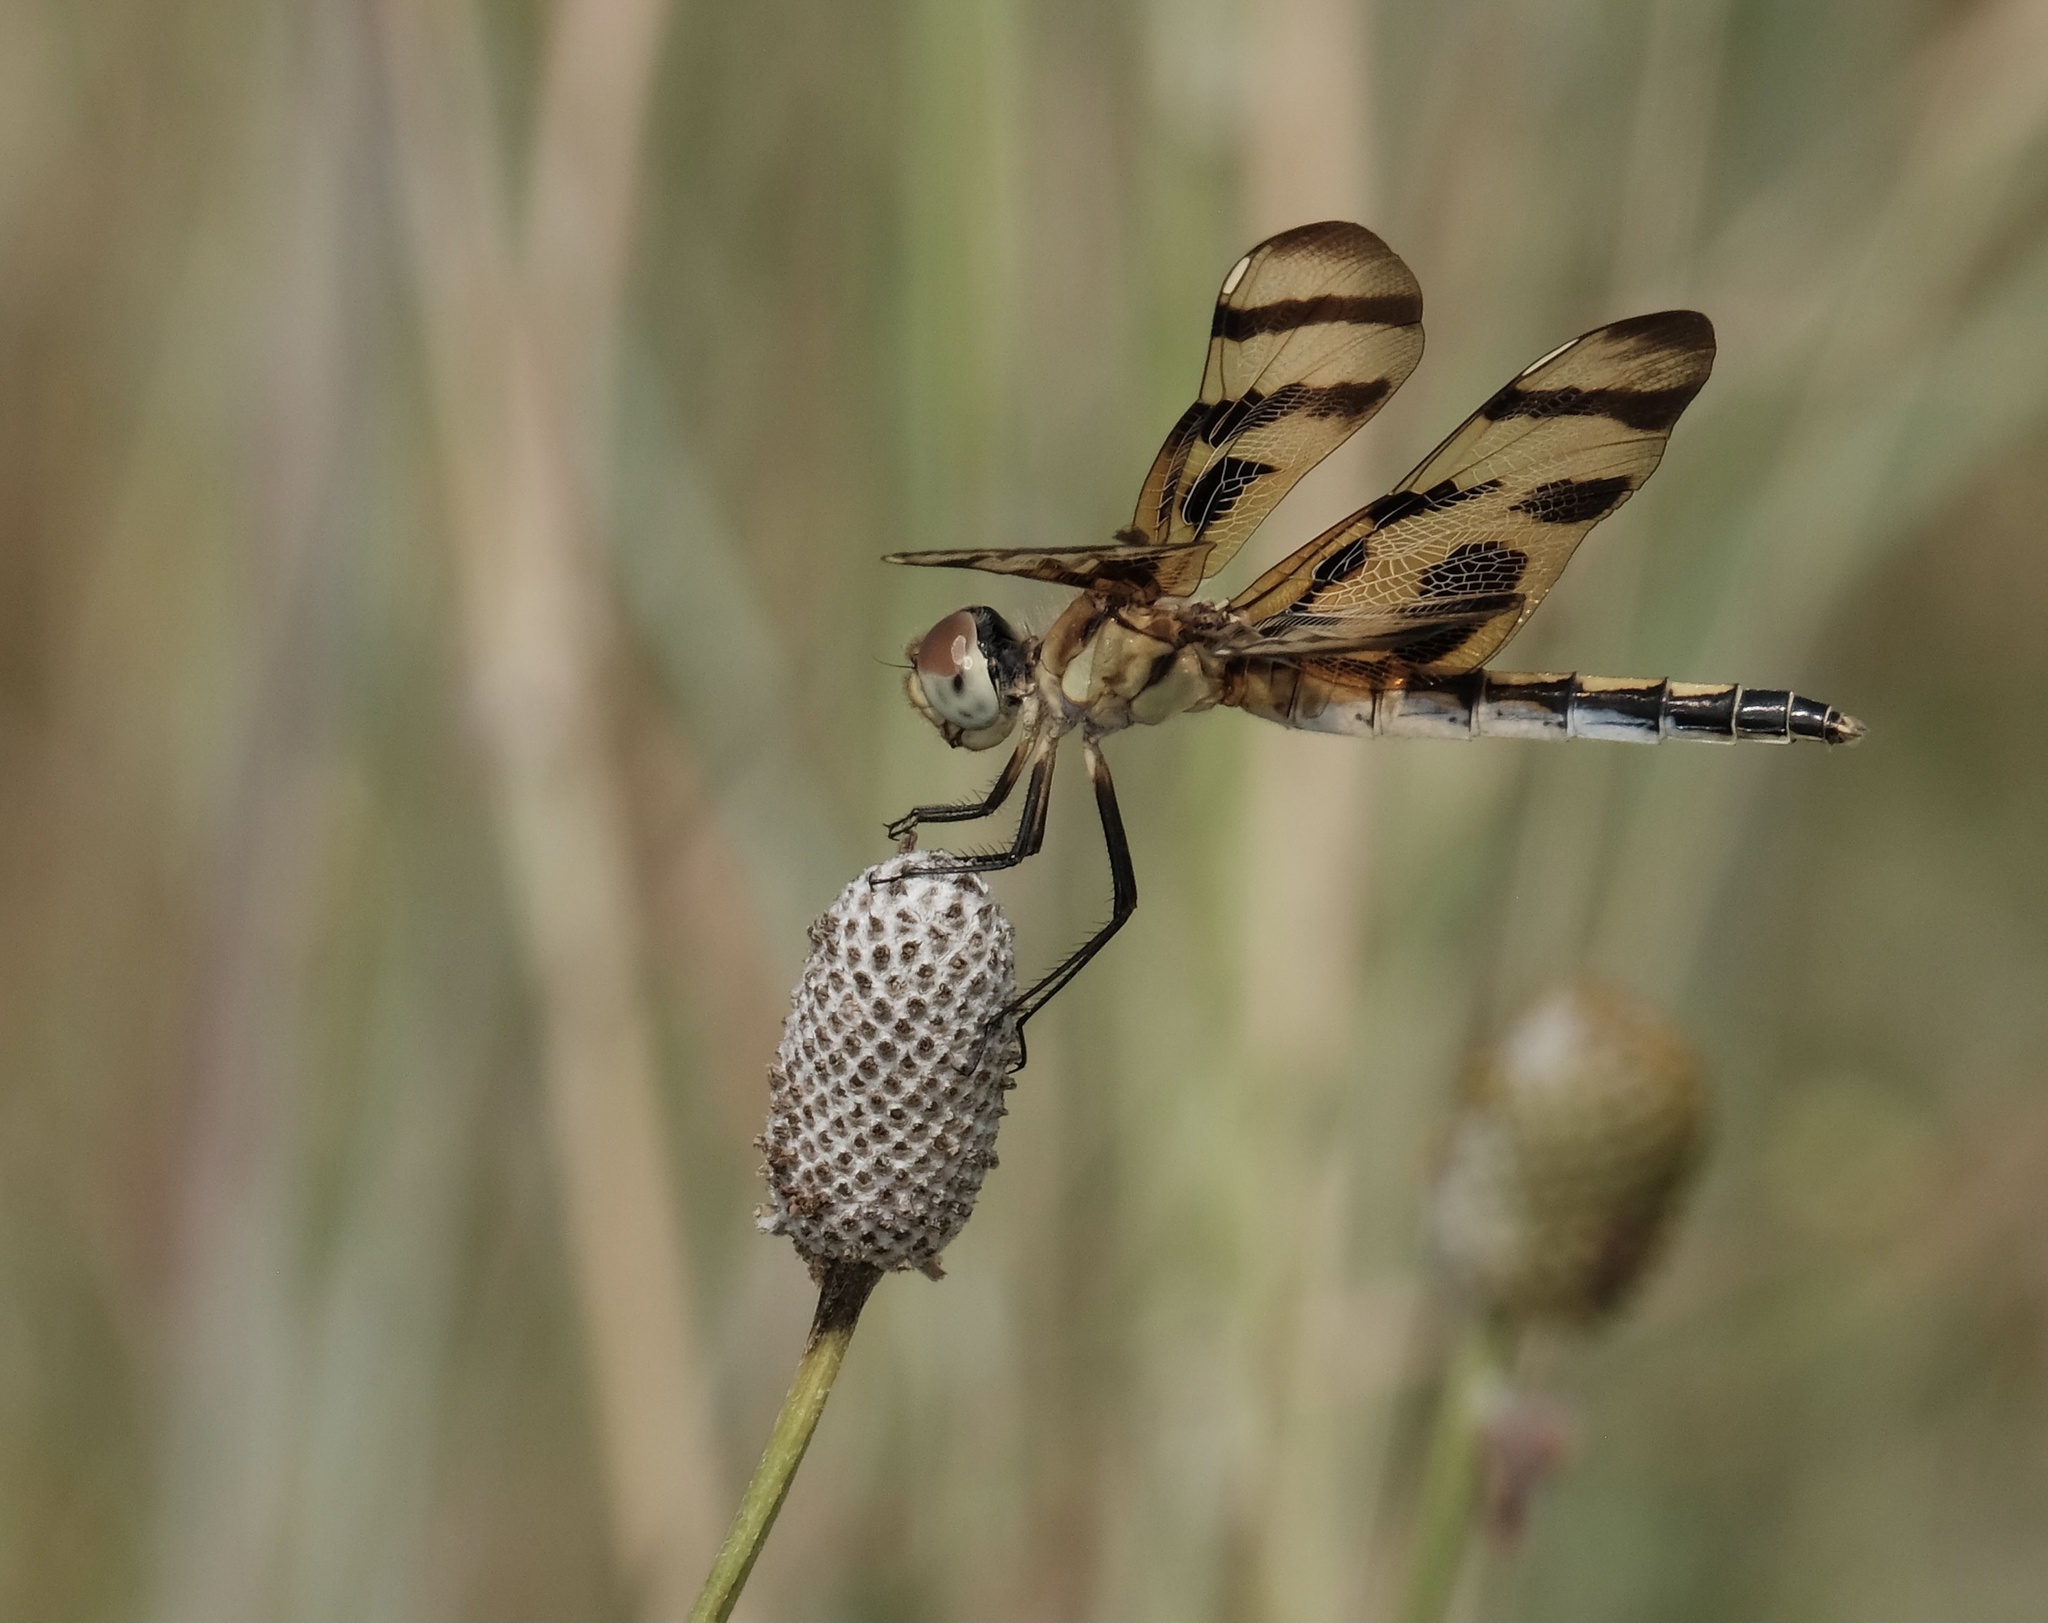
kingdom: Animalia
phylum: Arthropoda
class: Insecta
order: Odonata
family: Libellulidae
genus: Celithemis
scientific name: Celithemis eponina
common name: Halloween pennant
